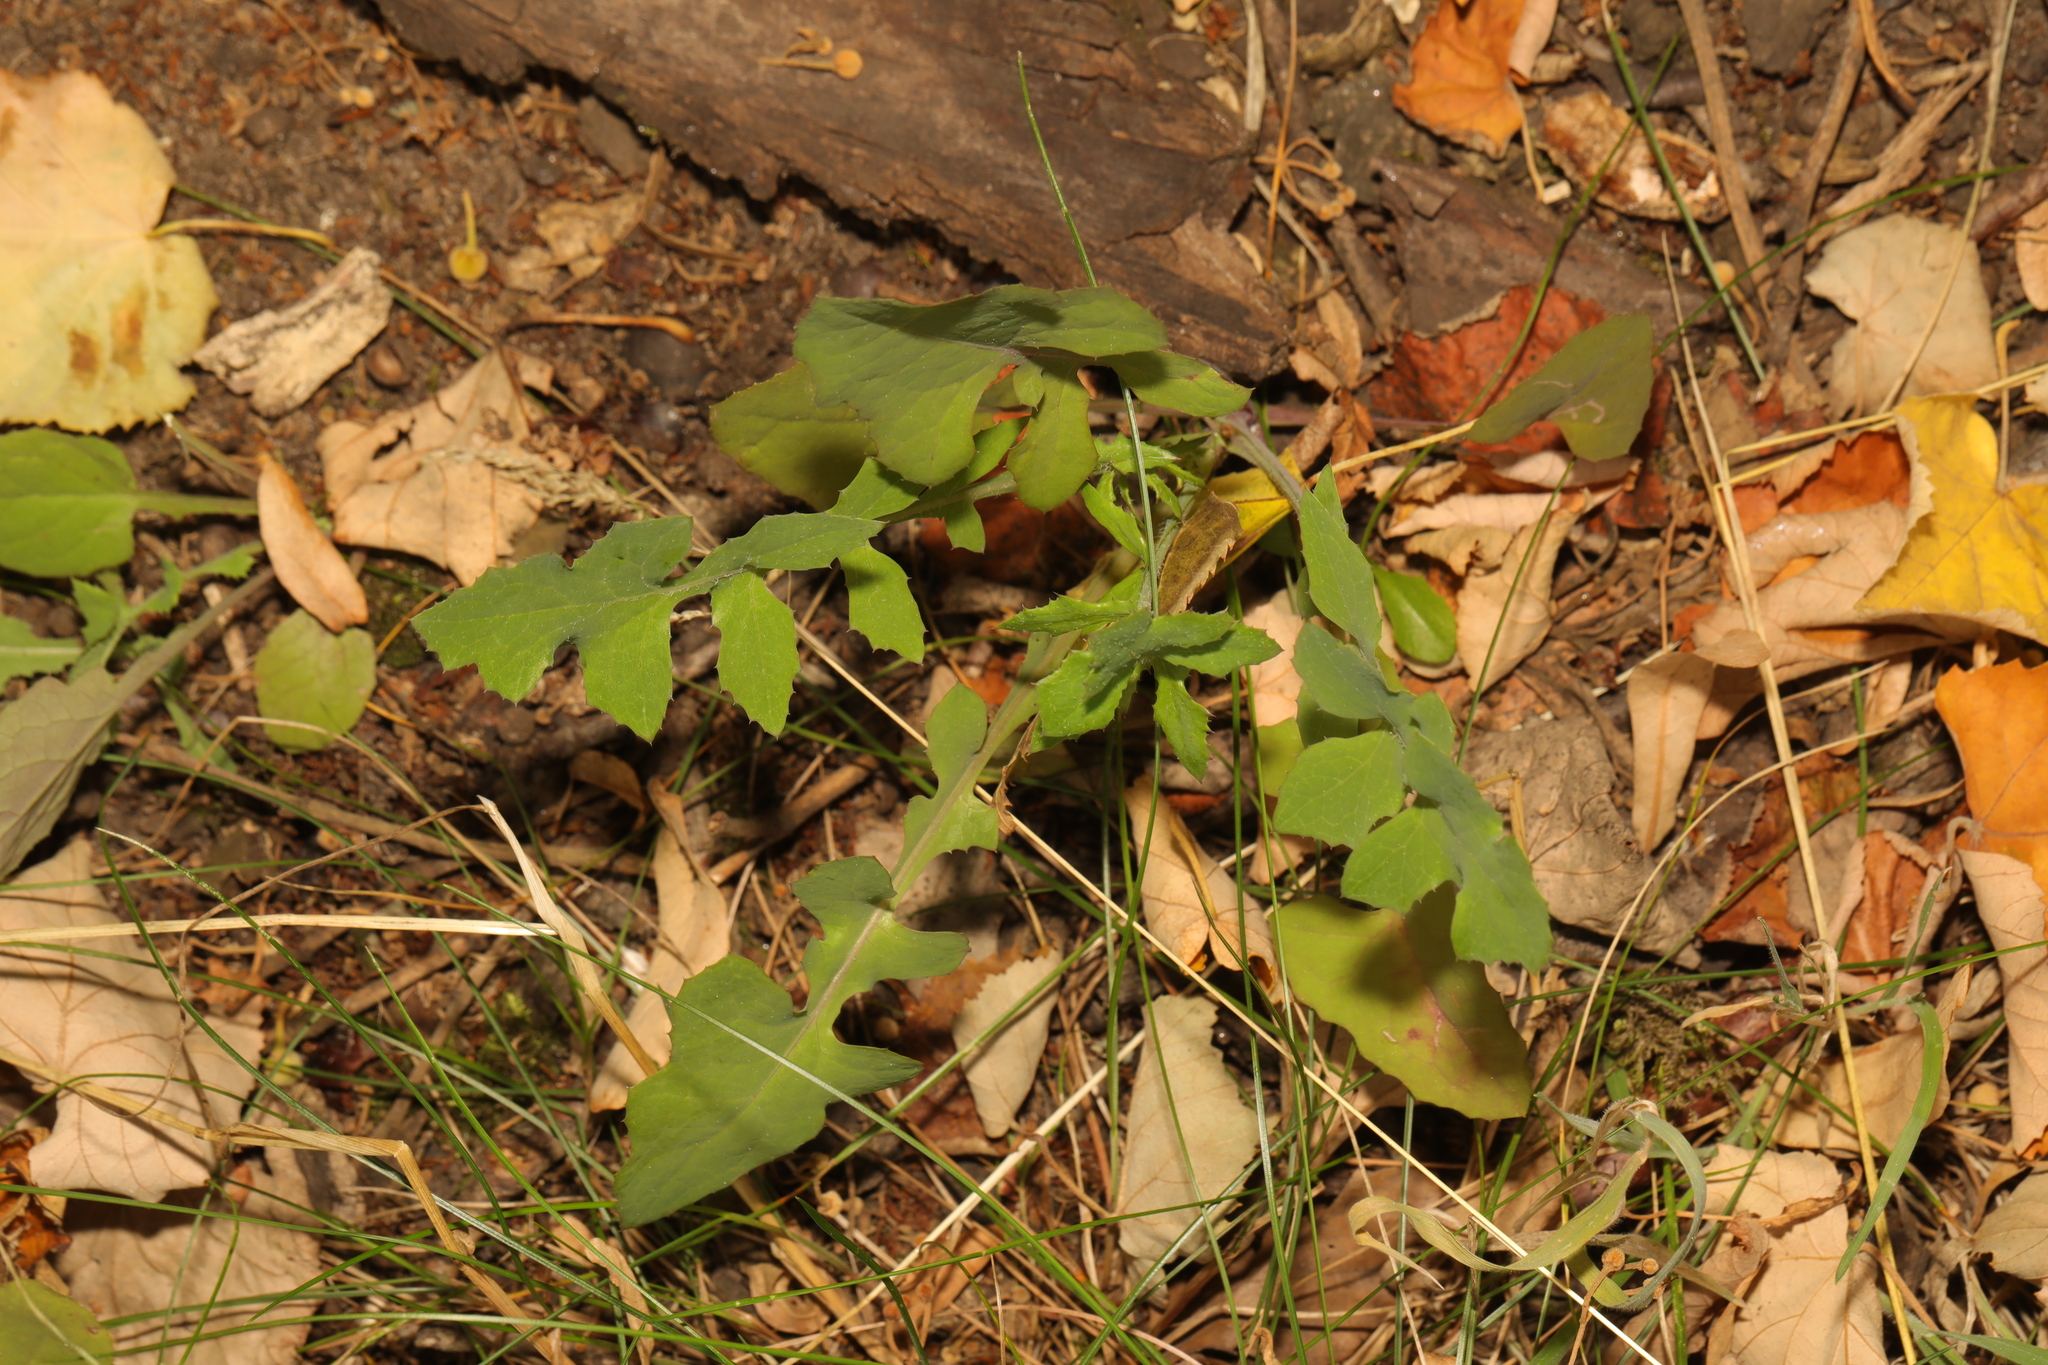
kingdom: Plantae
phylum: Tracheophyta
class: Magnoliopsida
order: Asterales
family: Asteraceae
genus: Sonchus
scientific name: Sonchus oleraceus
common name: Common sowthistle
